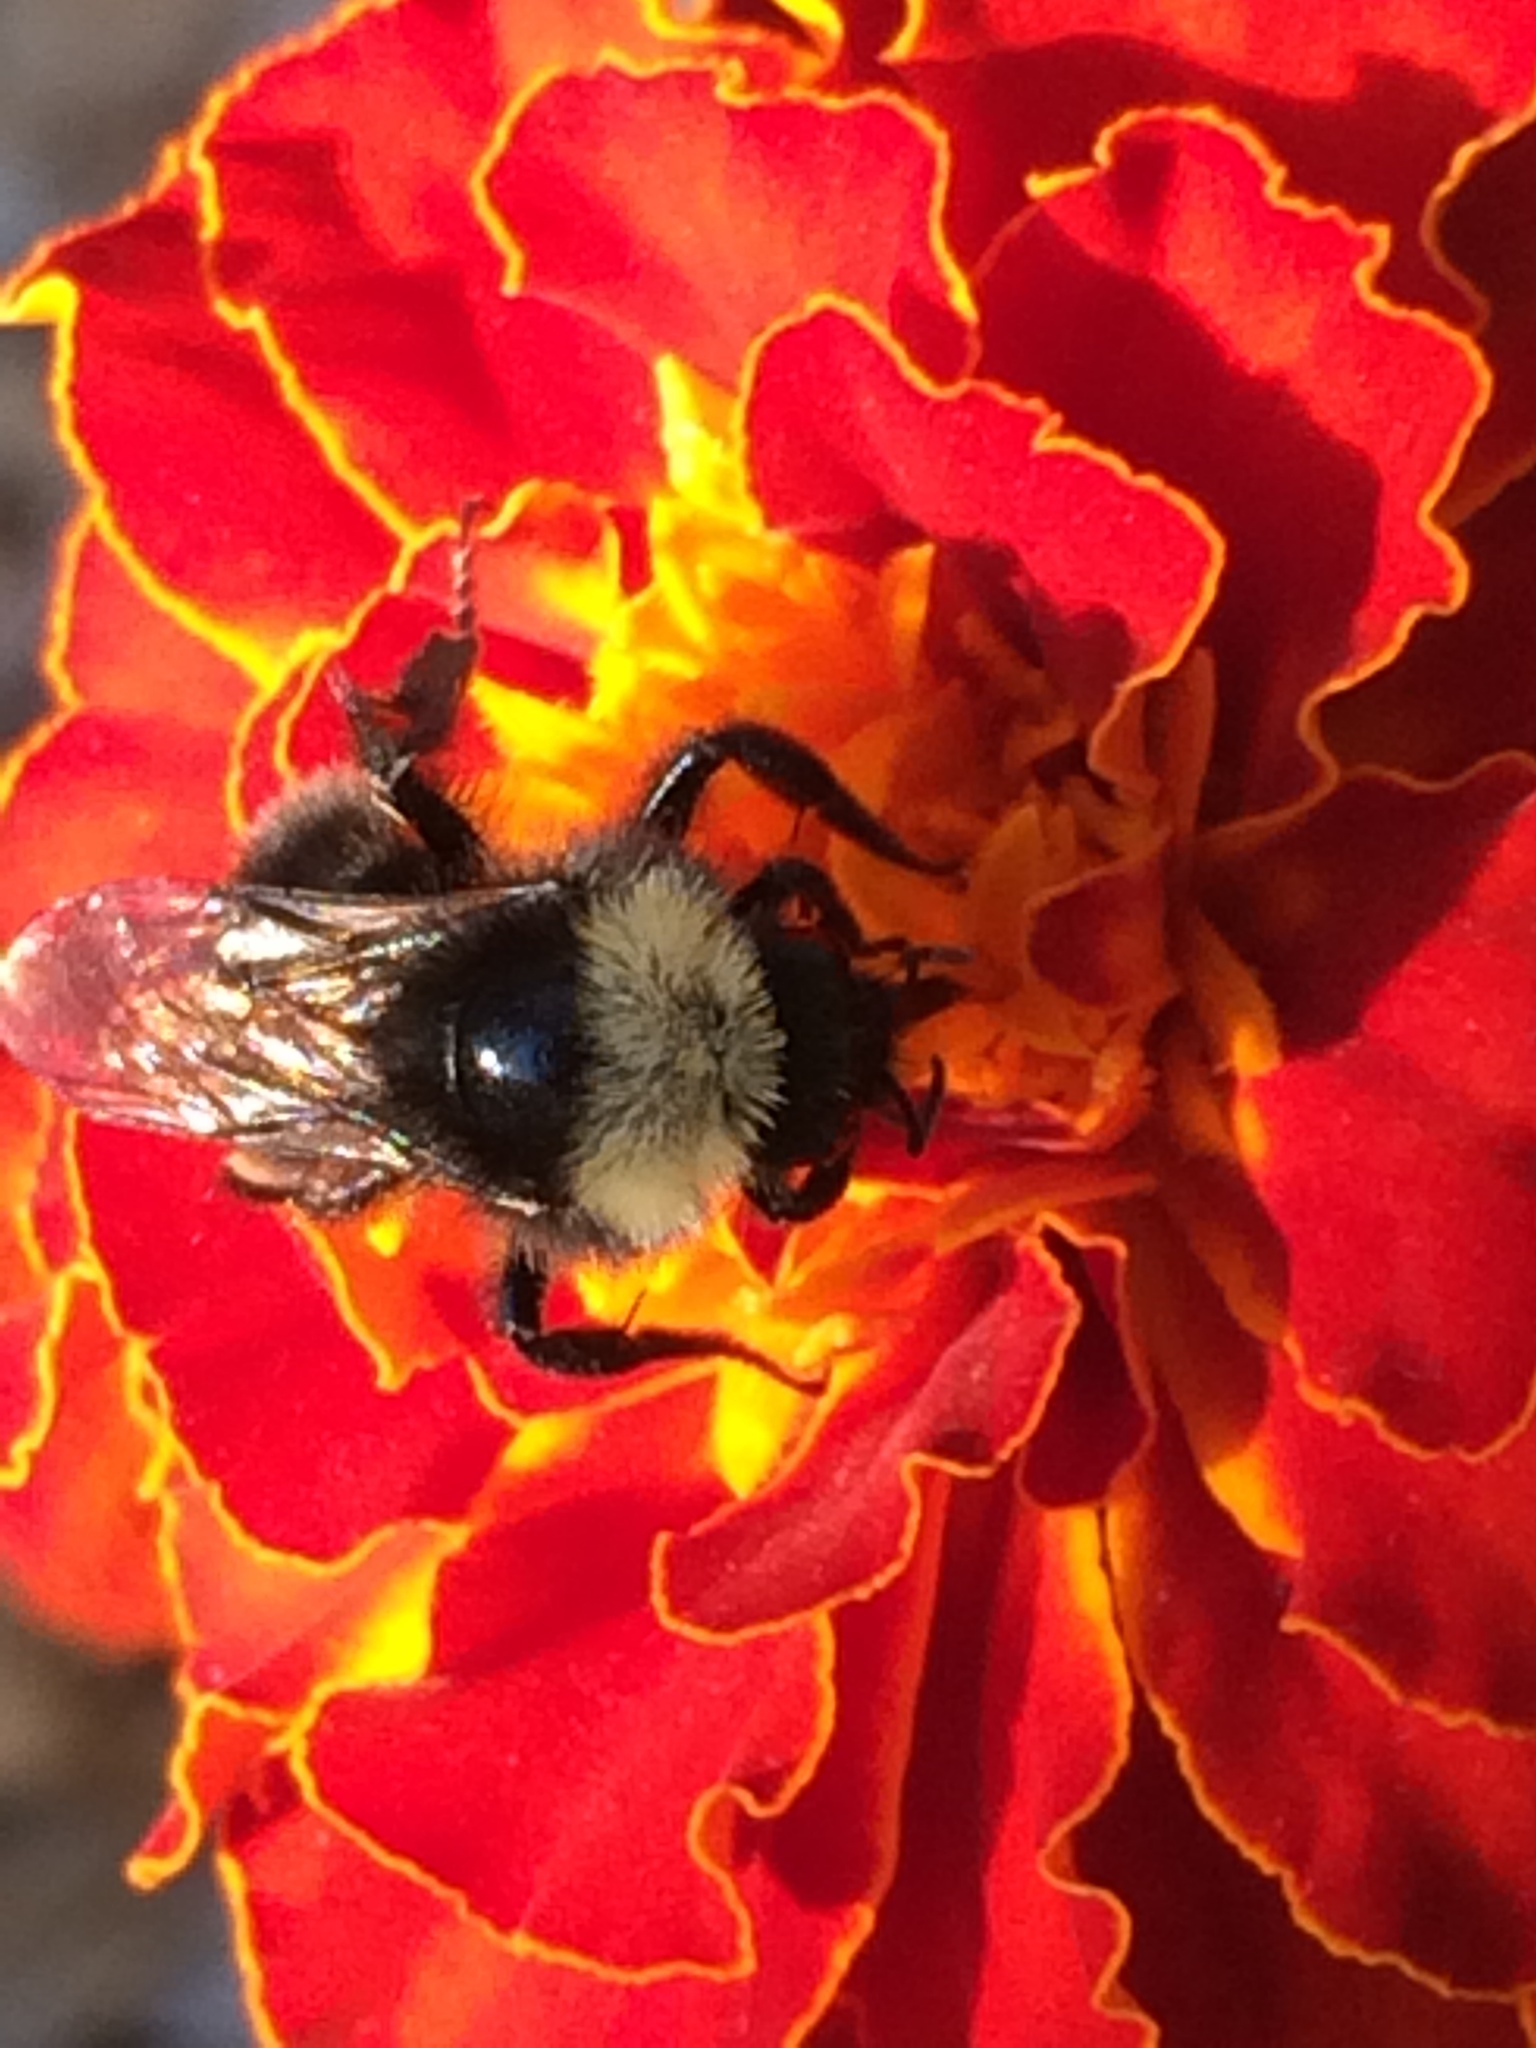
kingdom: Animalia
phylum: Arthropoda
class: Insecta
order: Hymenoptera
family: Apidae
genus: Bombus
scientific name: Bombus californicus
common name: California bumble bee
